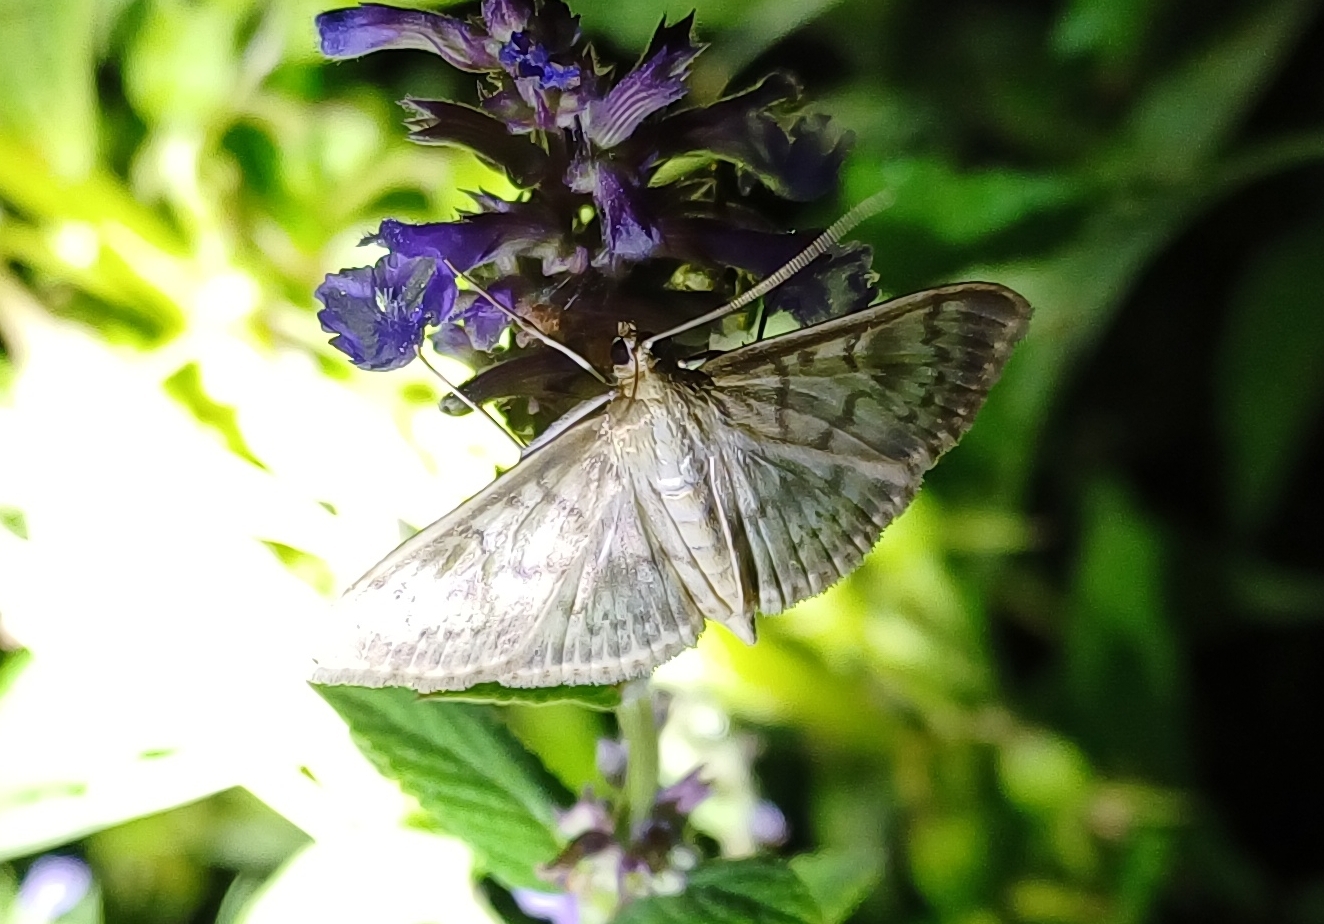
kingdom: Animalia
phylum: Arthropoda
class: Insecta
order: Lepidoptera
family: Crambidae
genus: Patania
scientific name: Patania ruralis
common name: Mother of pearl
